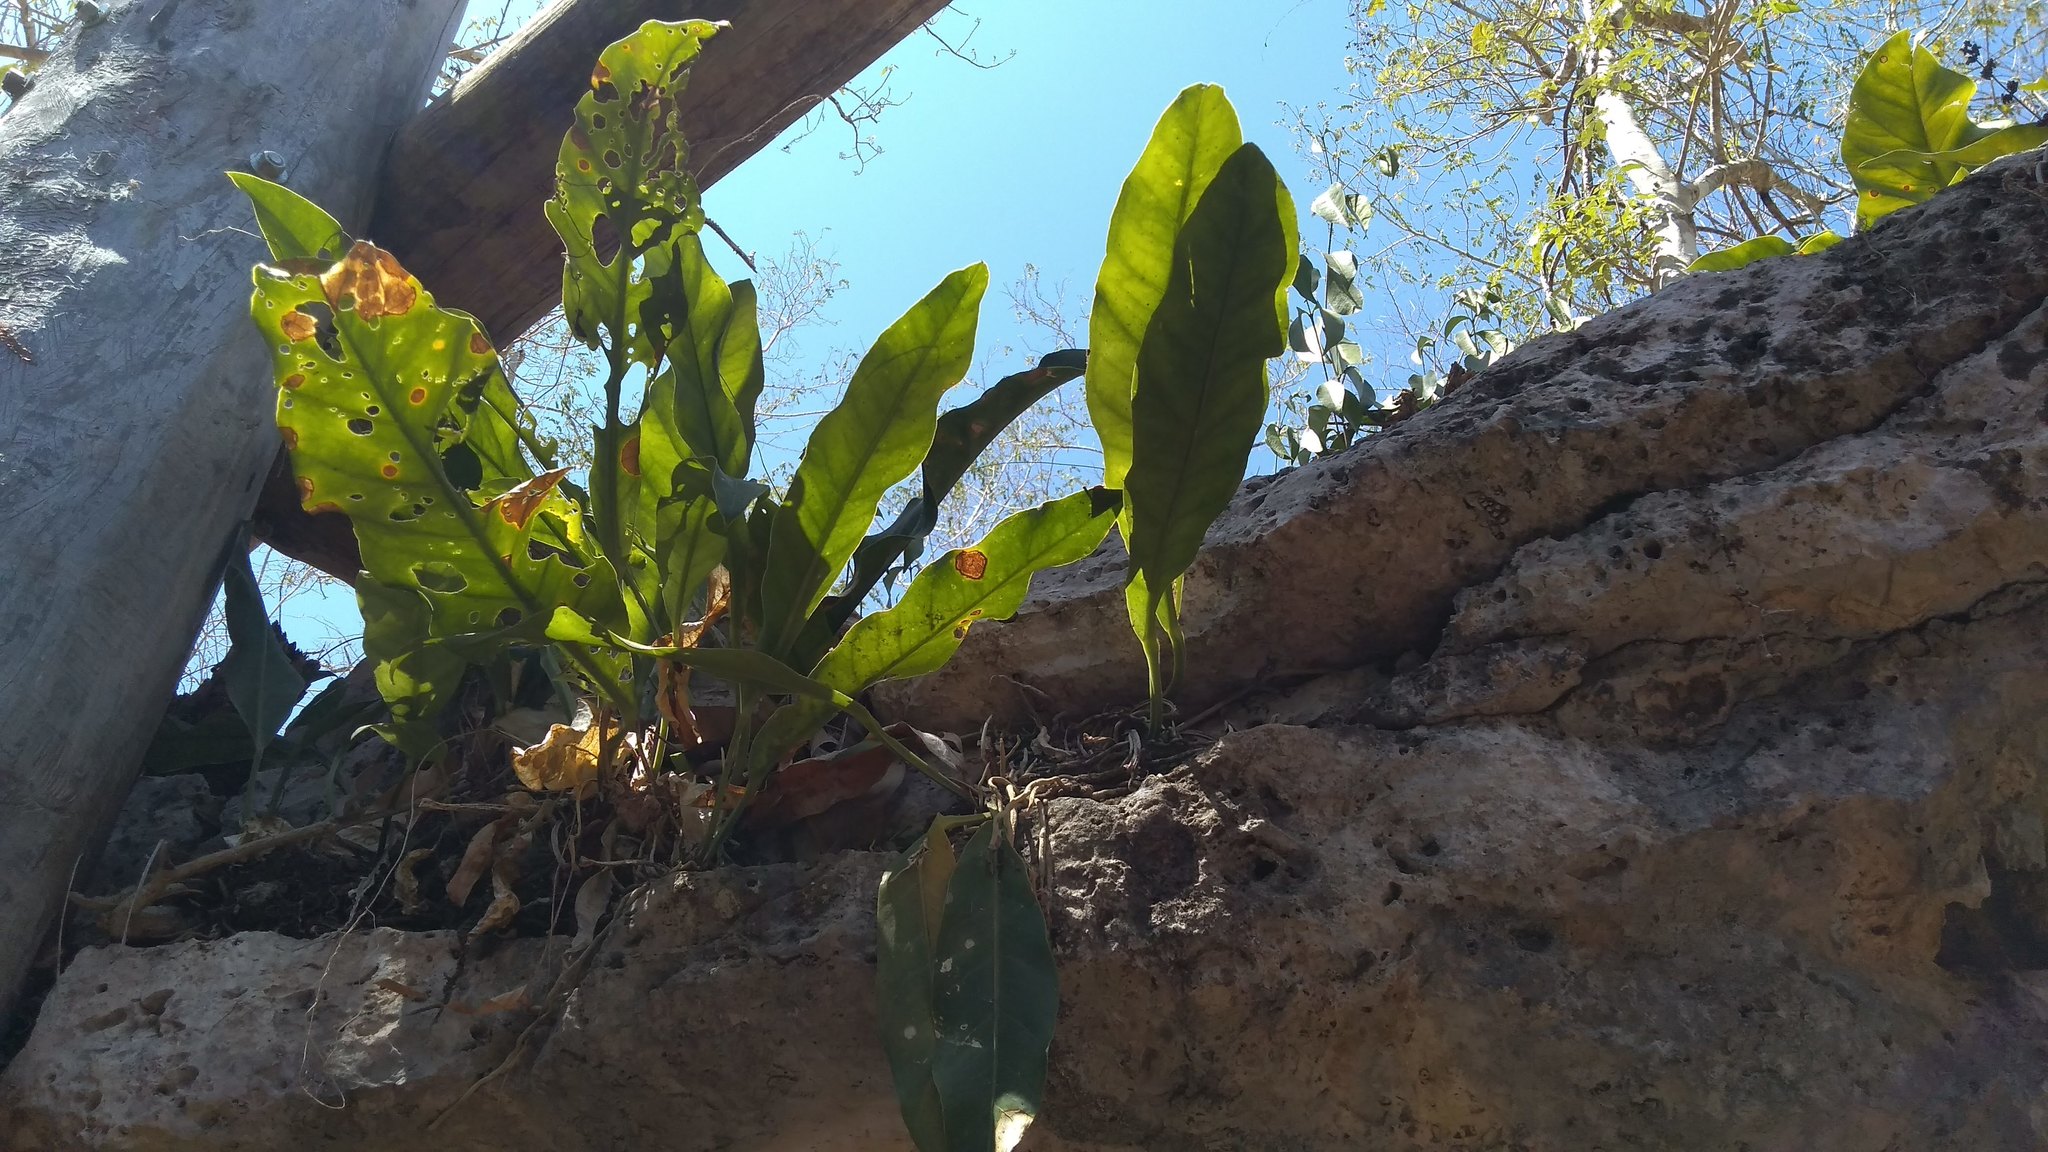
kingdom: Plantae
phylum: Tracheophyta
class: Liliopsida
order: Alismatales
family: Araceae
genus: Anthurium
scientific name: Anthurium schlechtendalii
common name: Laceleaf
